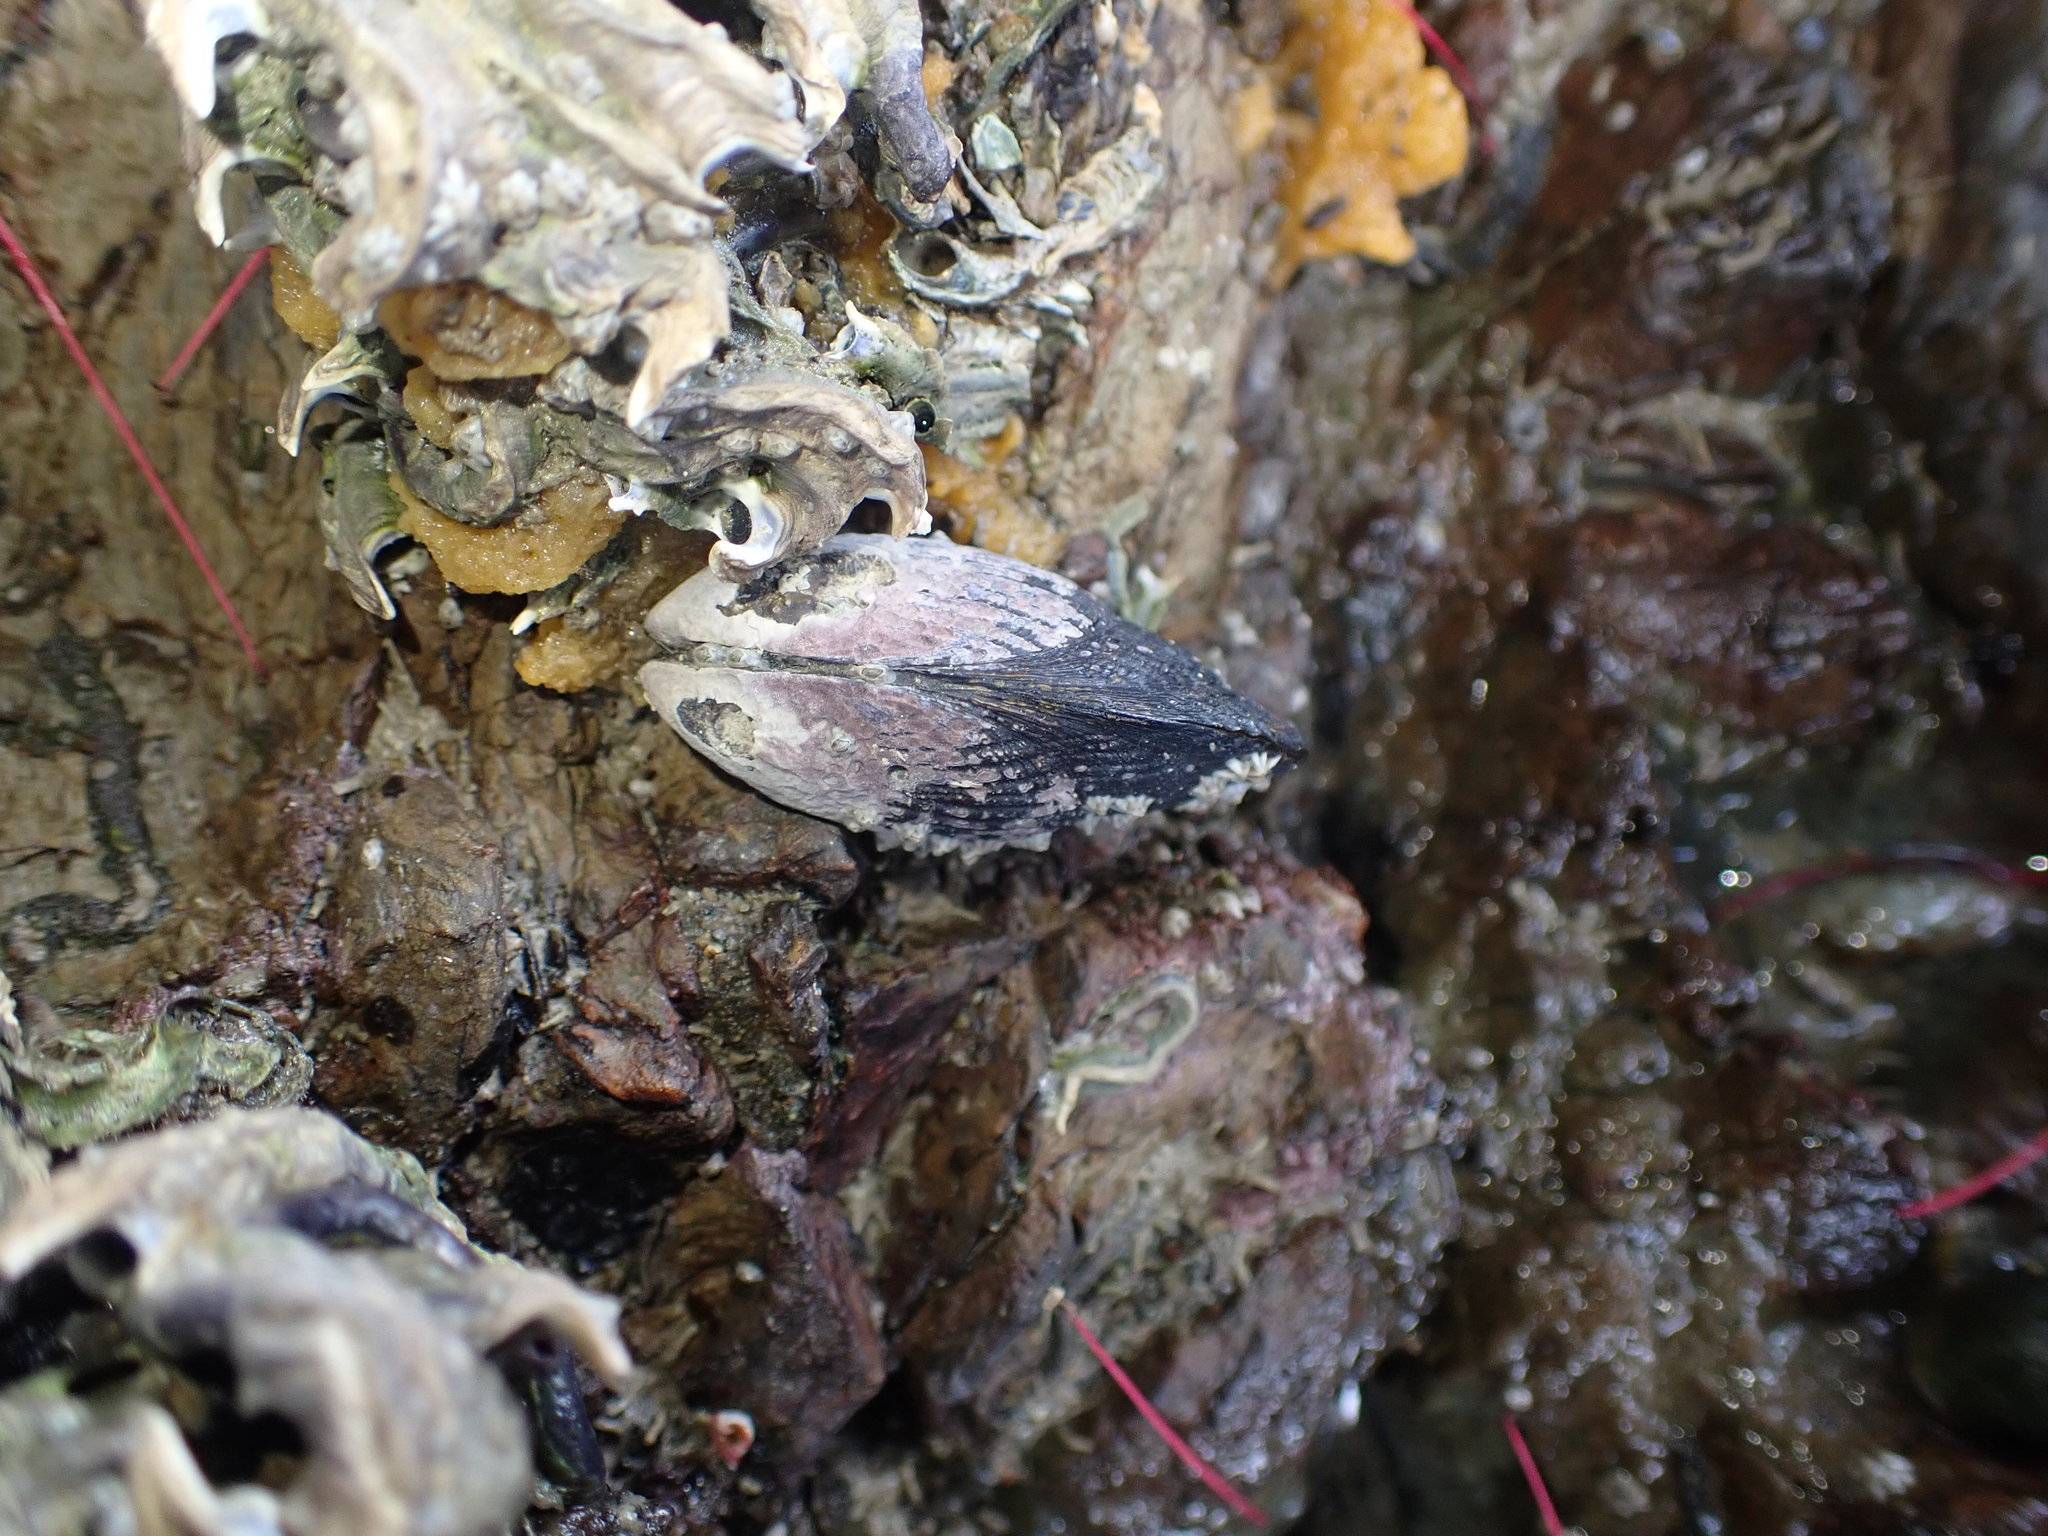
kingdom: Animalia
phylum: Mollusca
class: Bivalvia
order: Mytilida
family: Mytilidae
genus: Aulacomya
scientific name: Aulacomya maoriana
